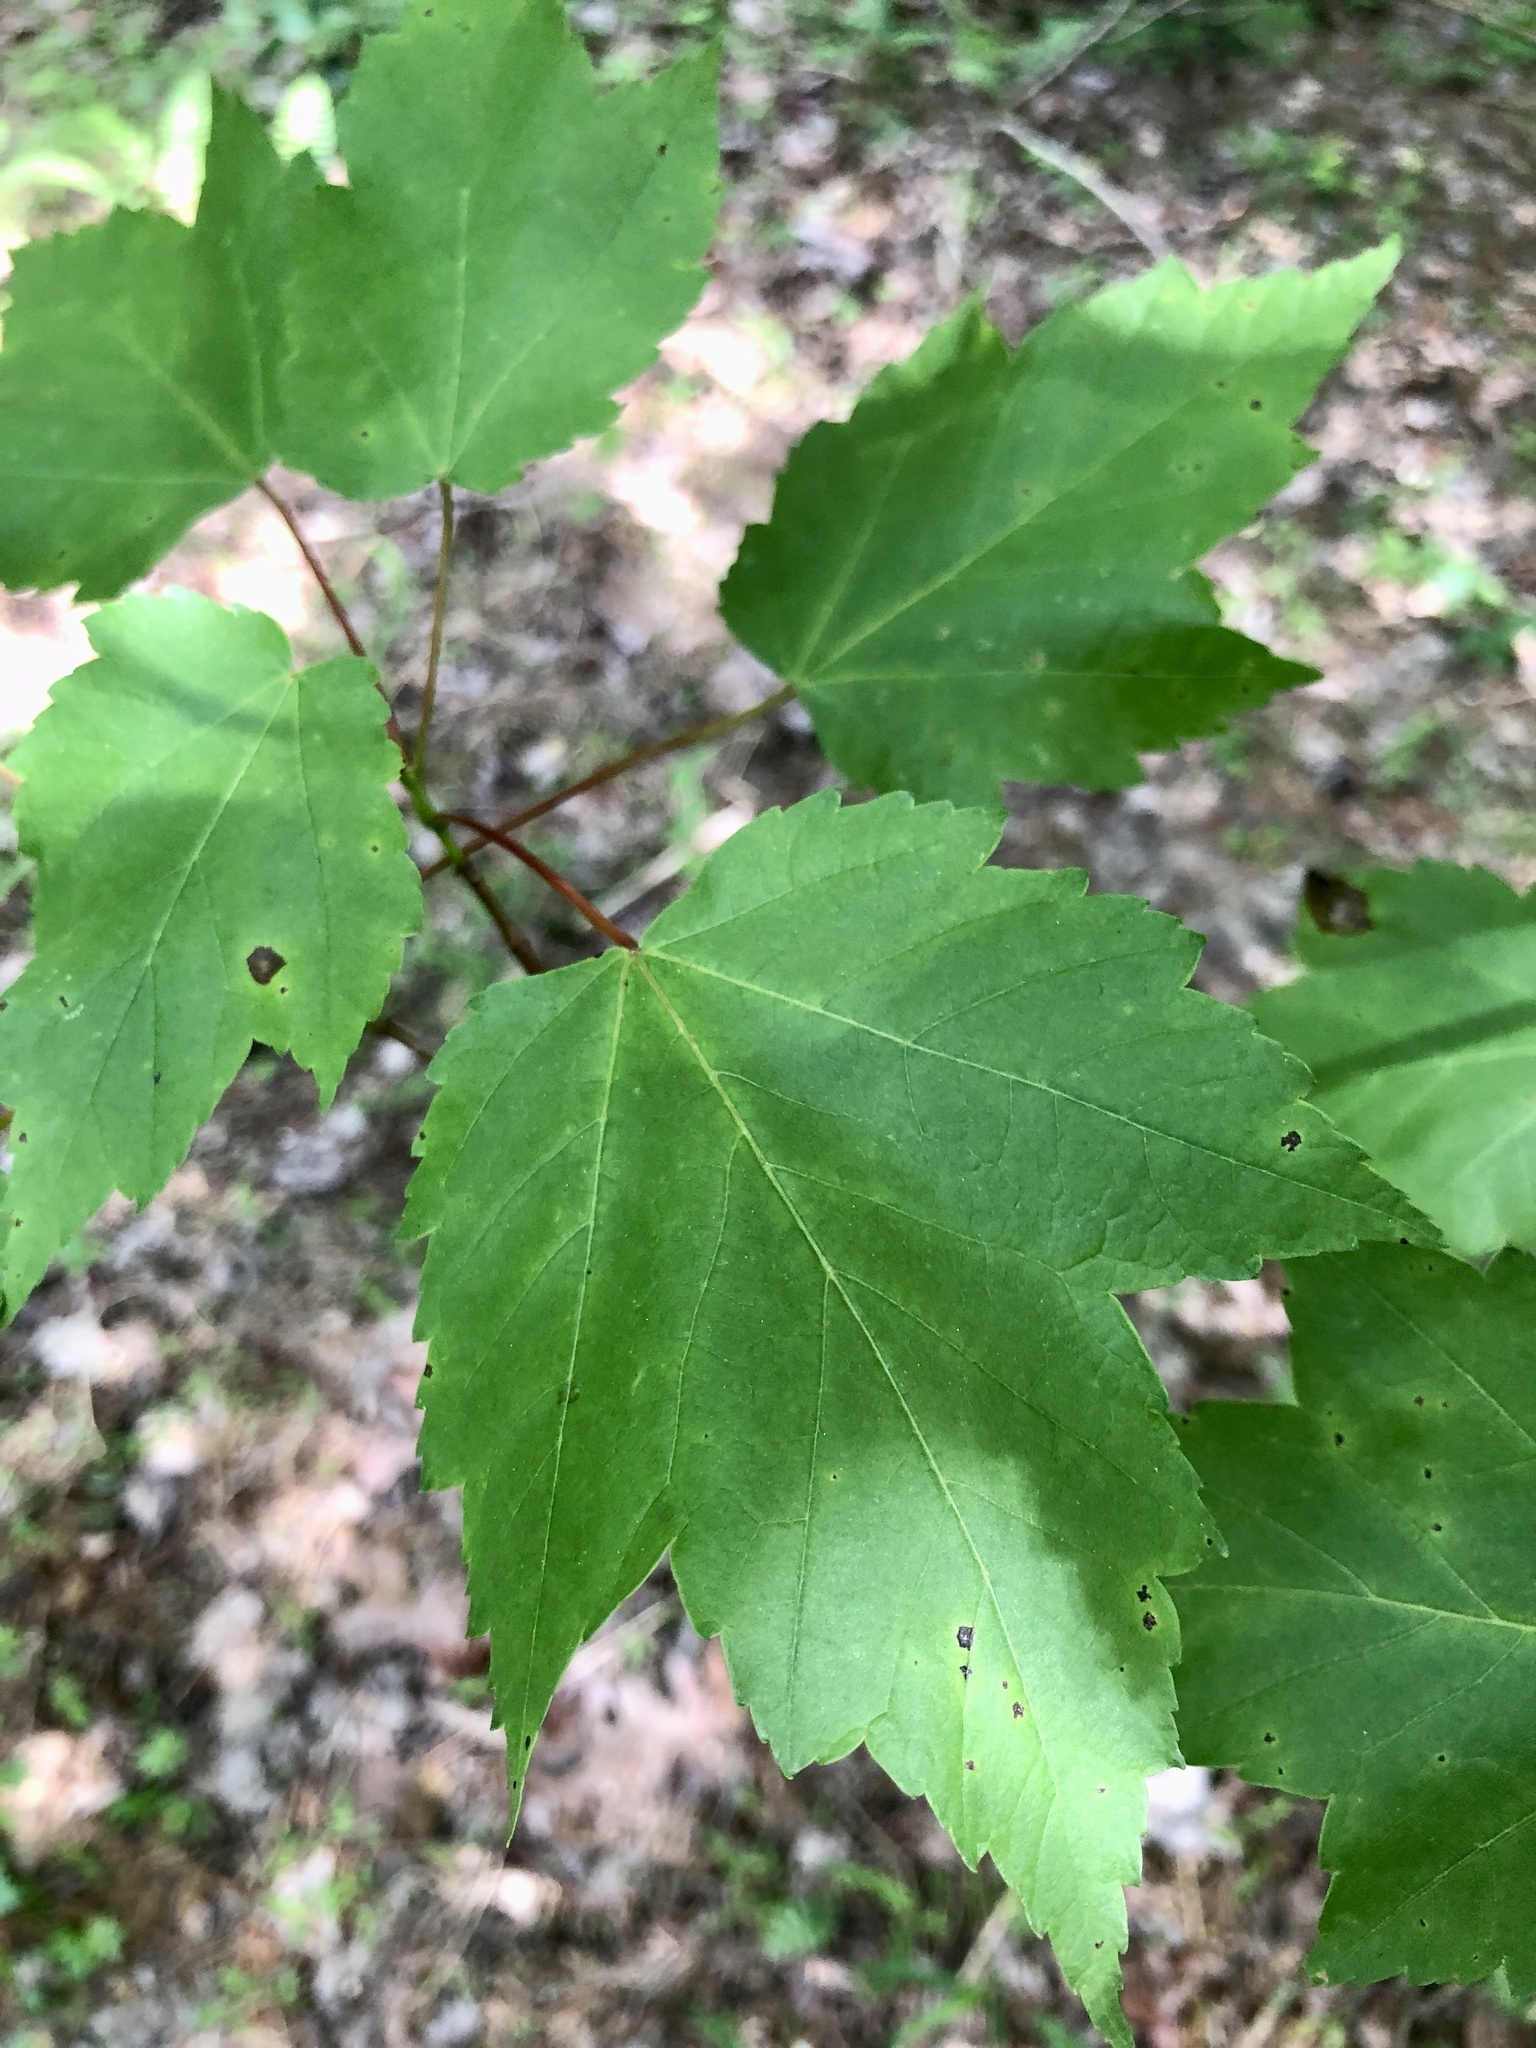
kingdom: Plantae
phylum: Tracheophyta
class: Magnoliopsida
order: Sapindales
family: Sapindaceae
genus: Acer
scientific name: Acer rubrum
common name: Red maple
